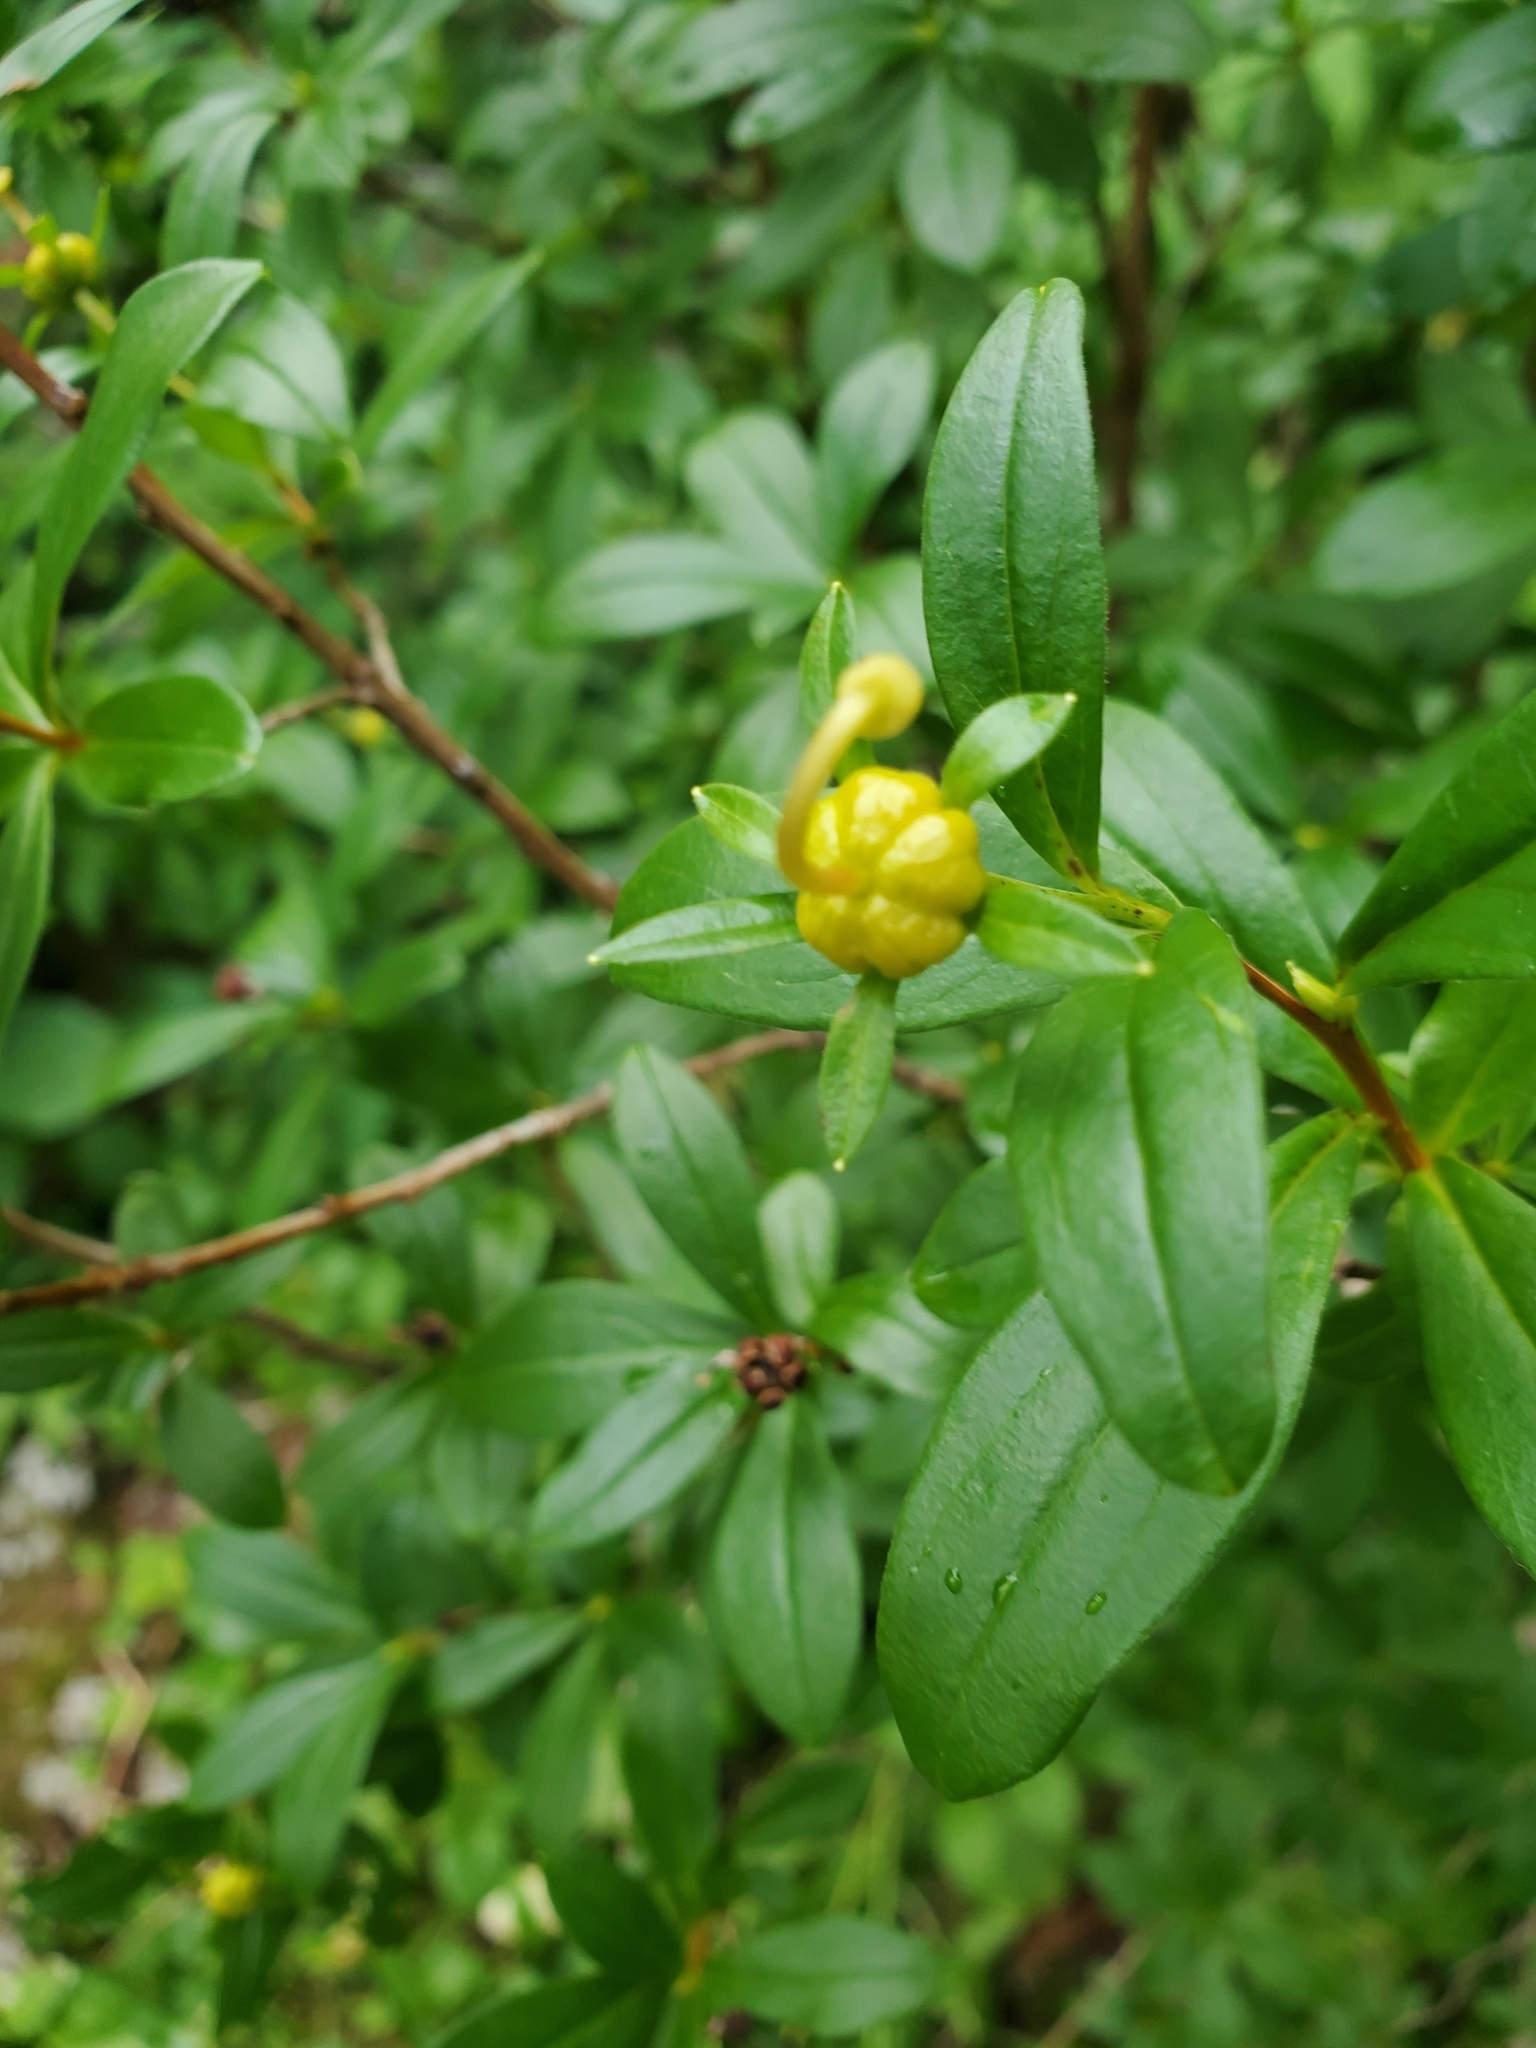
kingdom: Plantae
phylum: Tracheophyta
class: Magnoliopsida
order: Ericales
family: Ericaceae
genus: Elliottia
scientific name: Elliottia pyroliflora
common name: Copperbush
